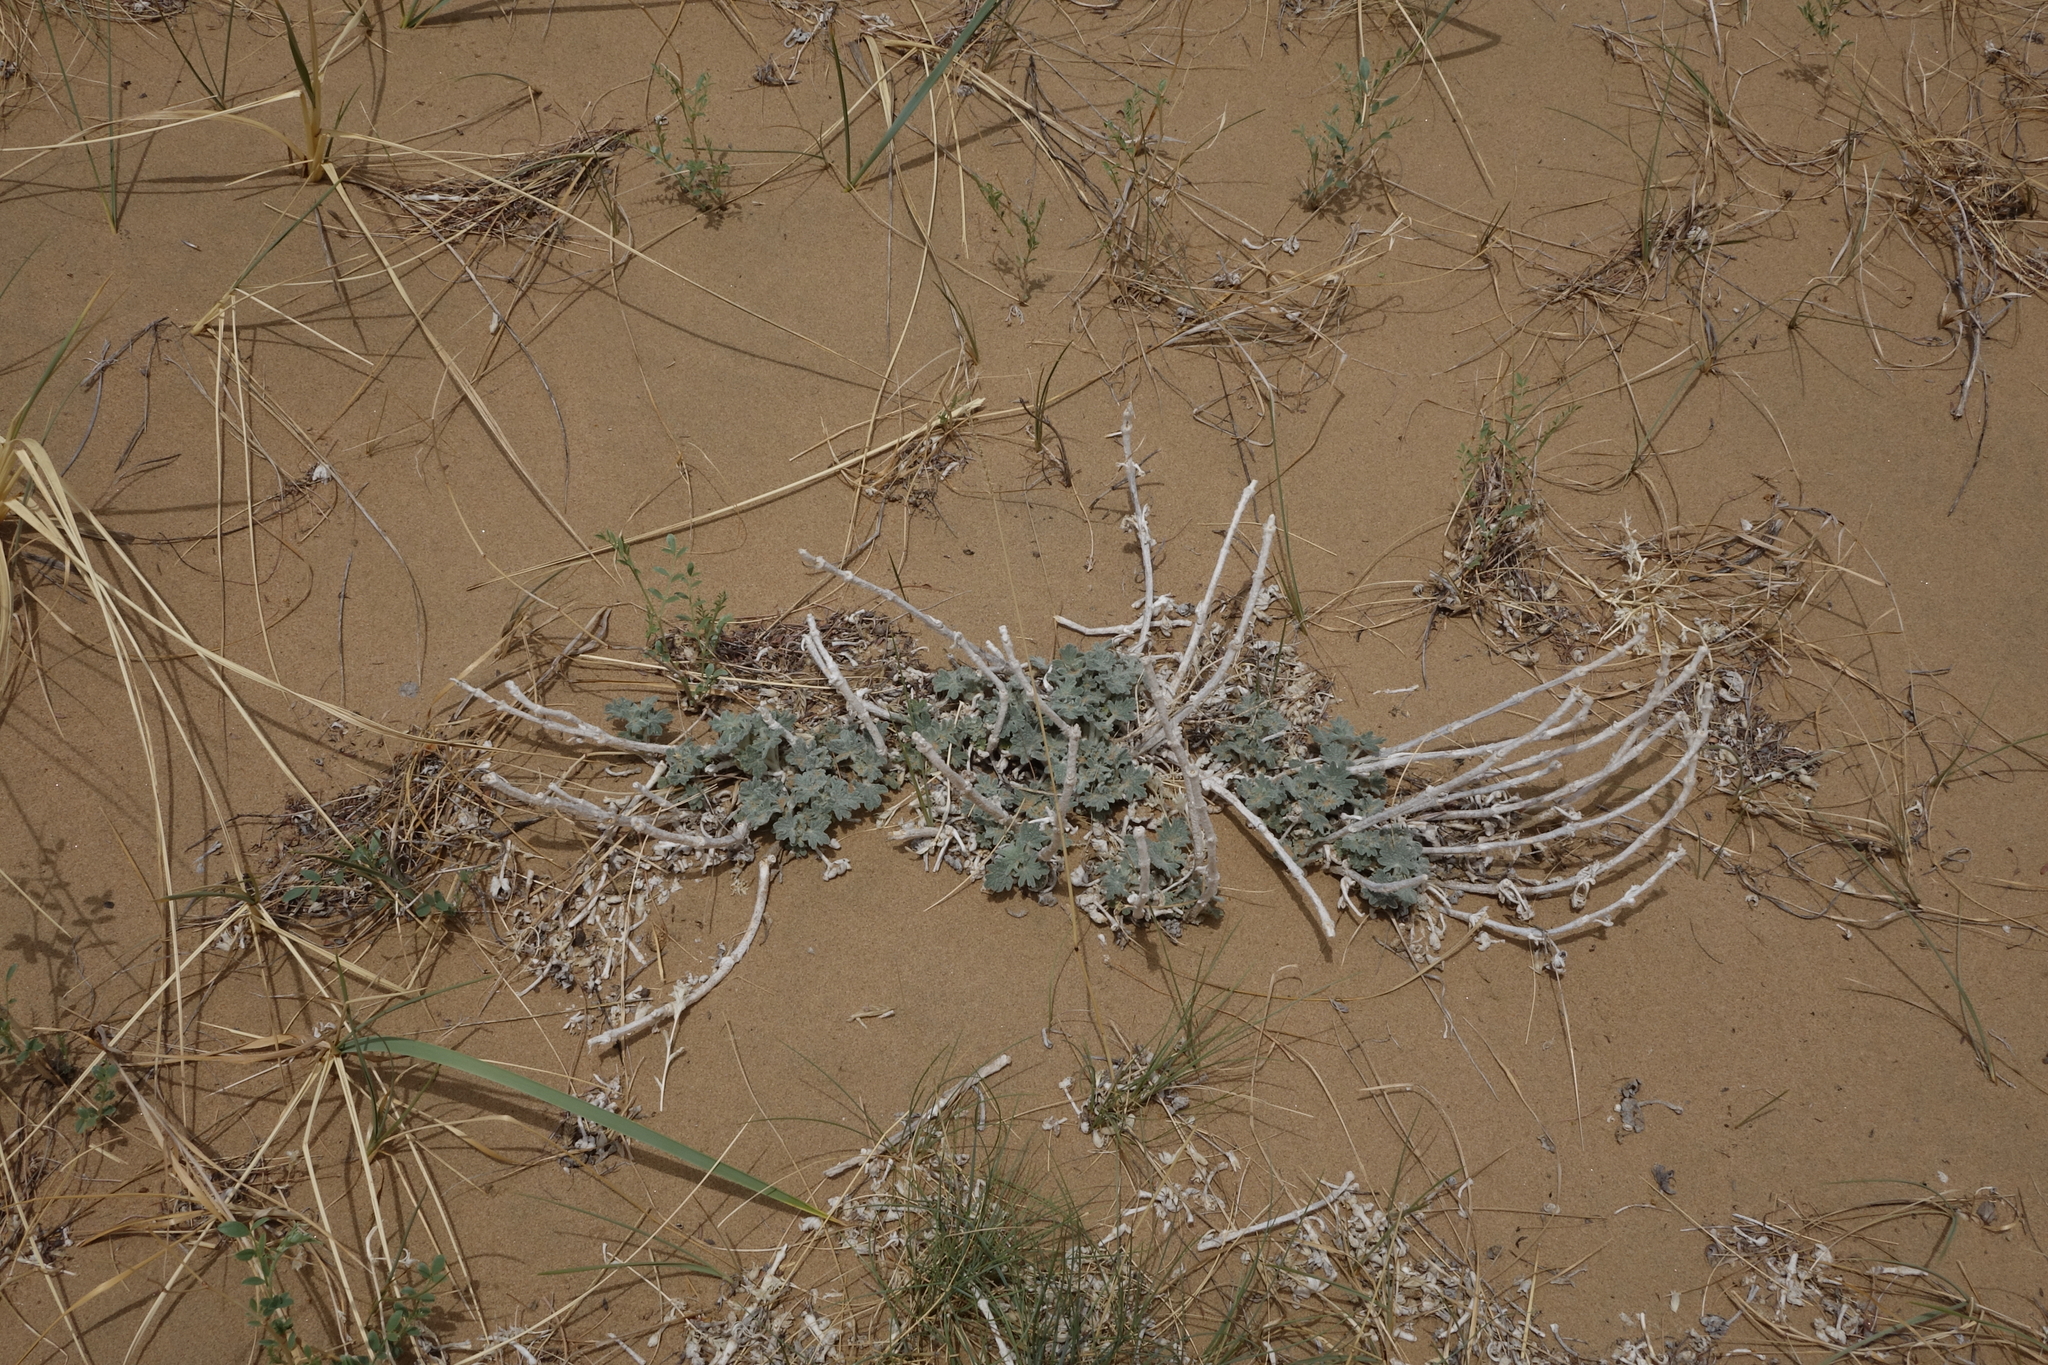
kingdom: Plantae
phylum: Tracheophyta
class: Magnoliopsida
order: Lamiales
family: Lamiaceae
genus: Panzerina
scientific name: Panzerina lanata
